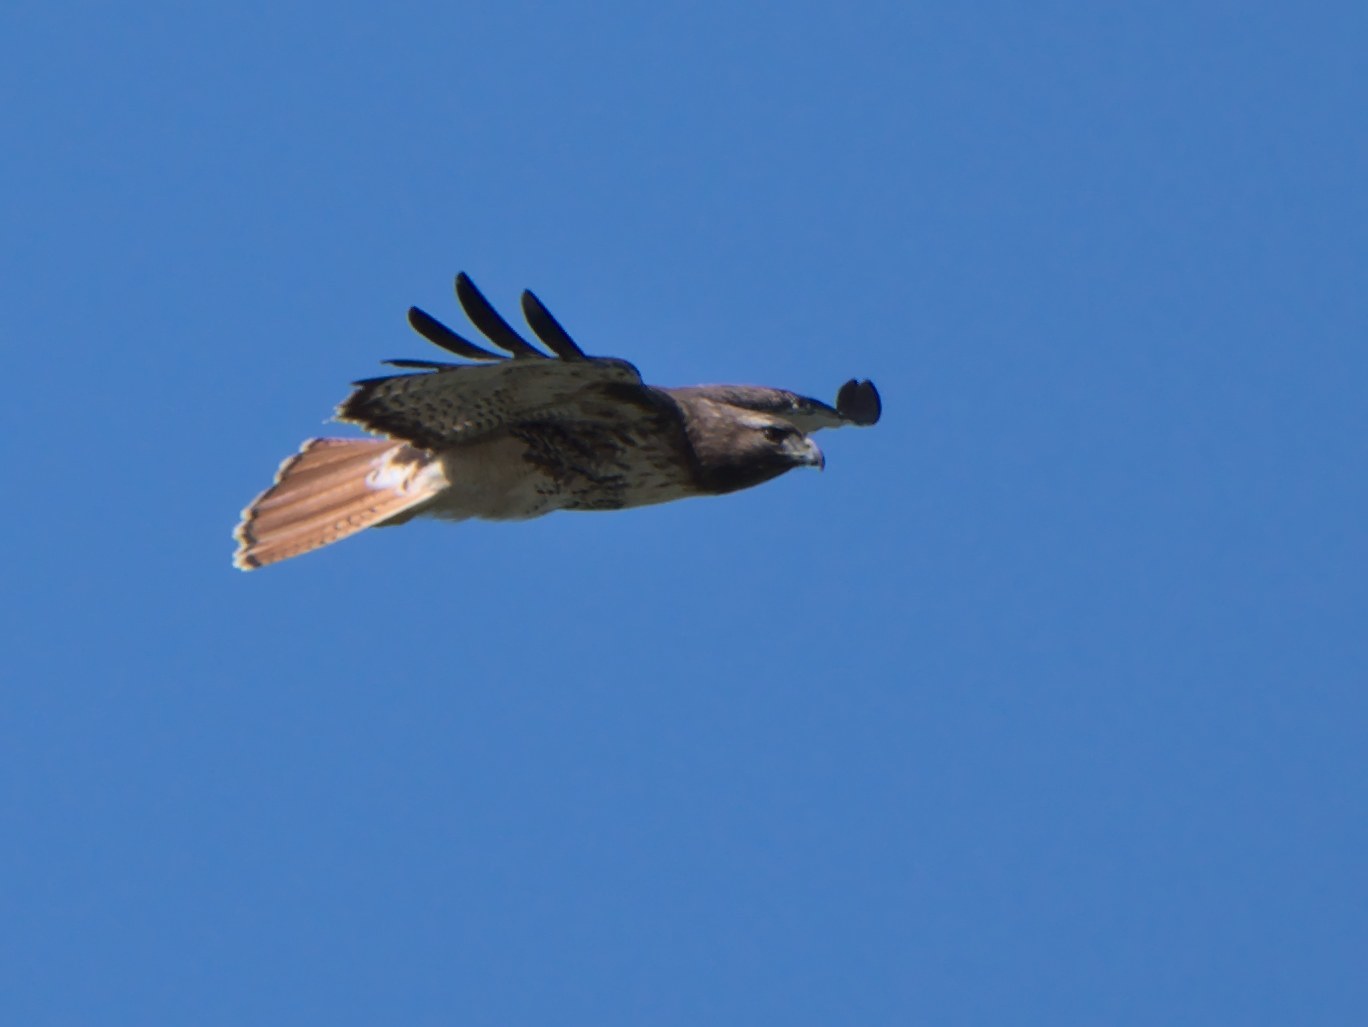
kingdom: Animalia
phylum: Chordata
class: Aves
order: Accipitriformes
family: Accipitridae
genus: Buteo
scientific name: Buteo jamaicensis
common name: Red-tailed hawk
